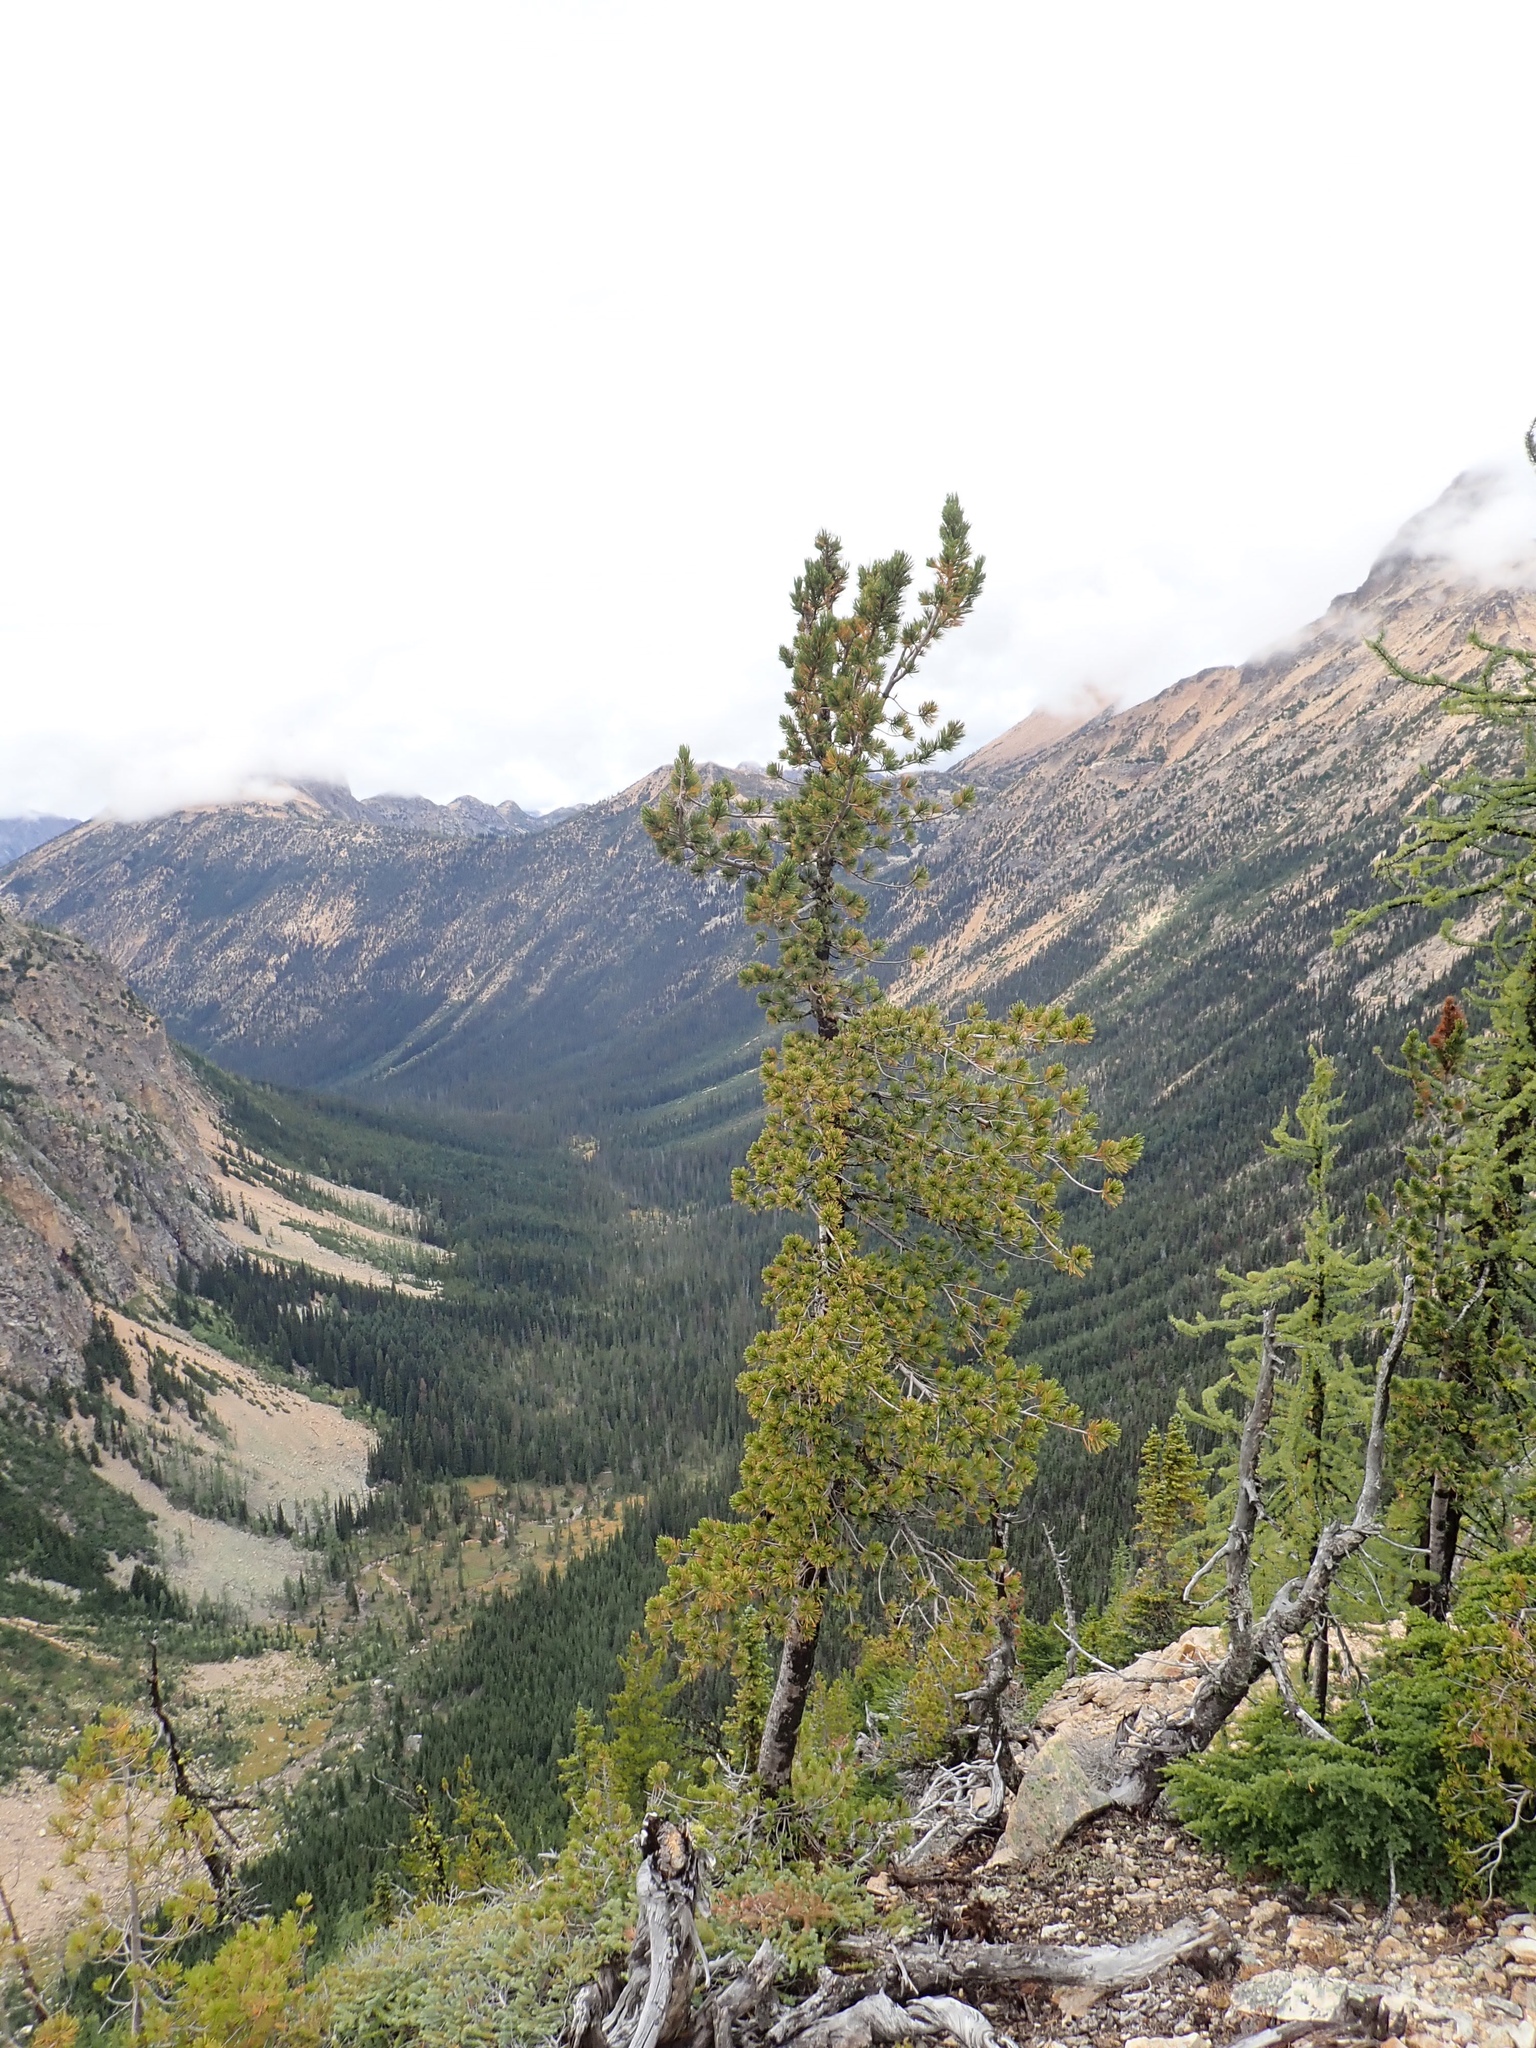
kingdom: Plantae
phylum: Tracheophyta
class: Pinopsida
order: Pinales
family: Pinaceae
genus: Pinus
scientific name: Pinus albicaulis
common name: Whitebark pine
